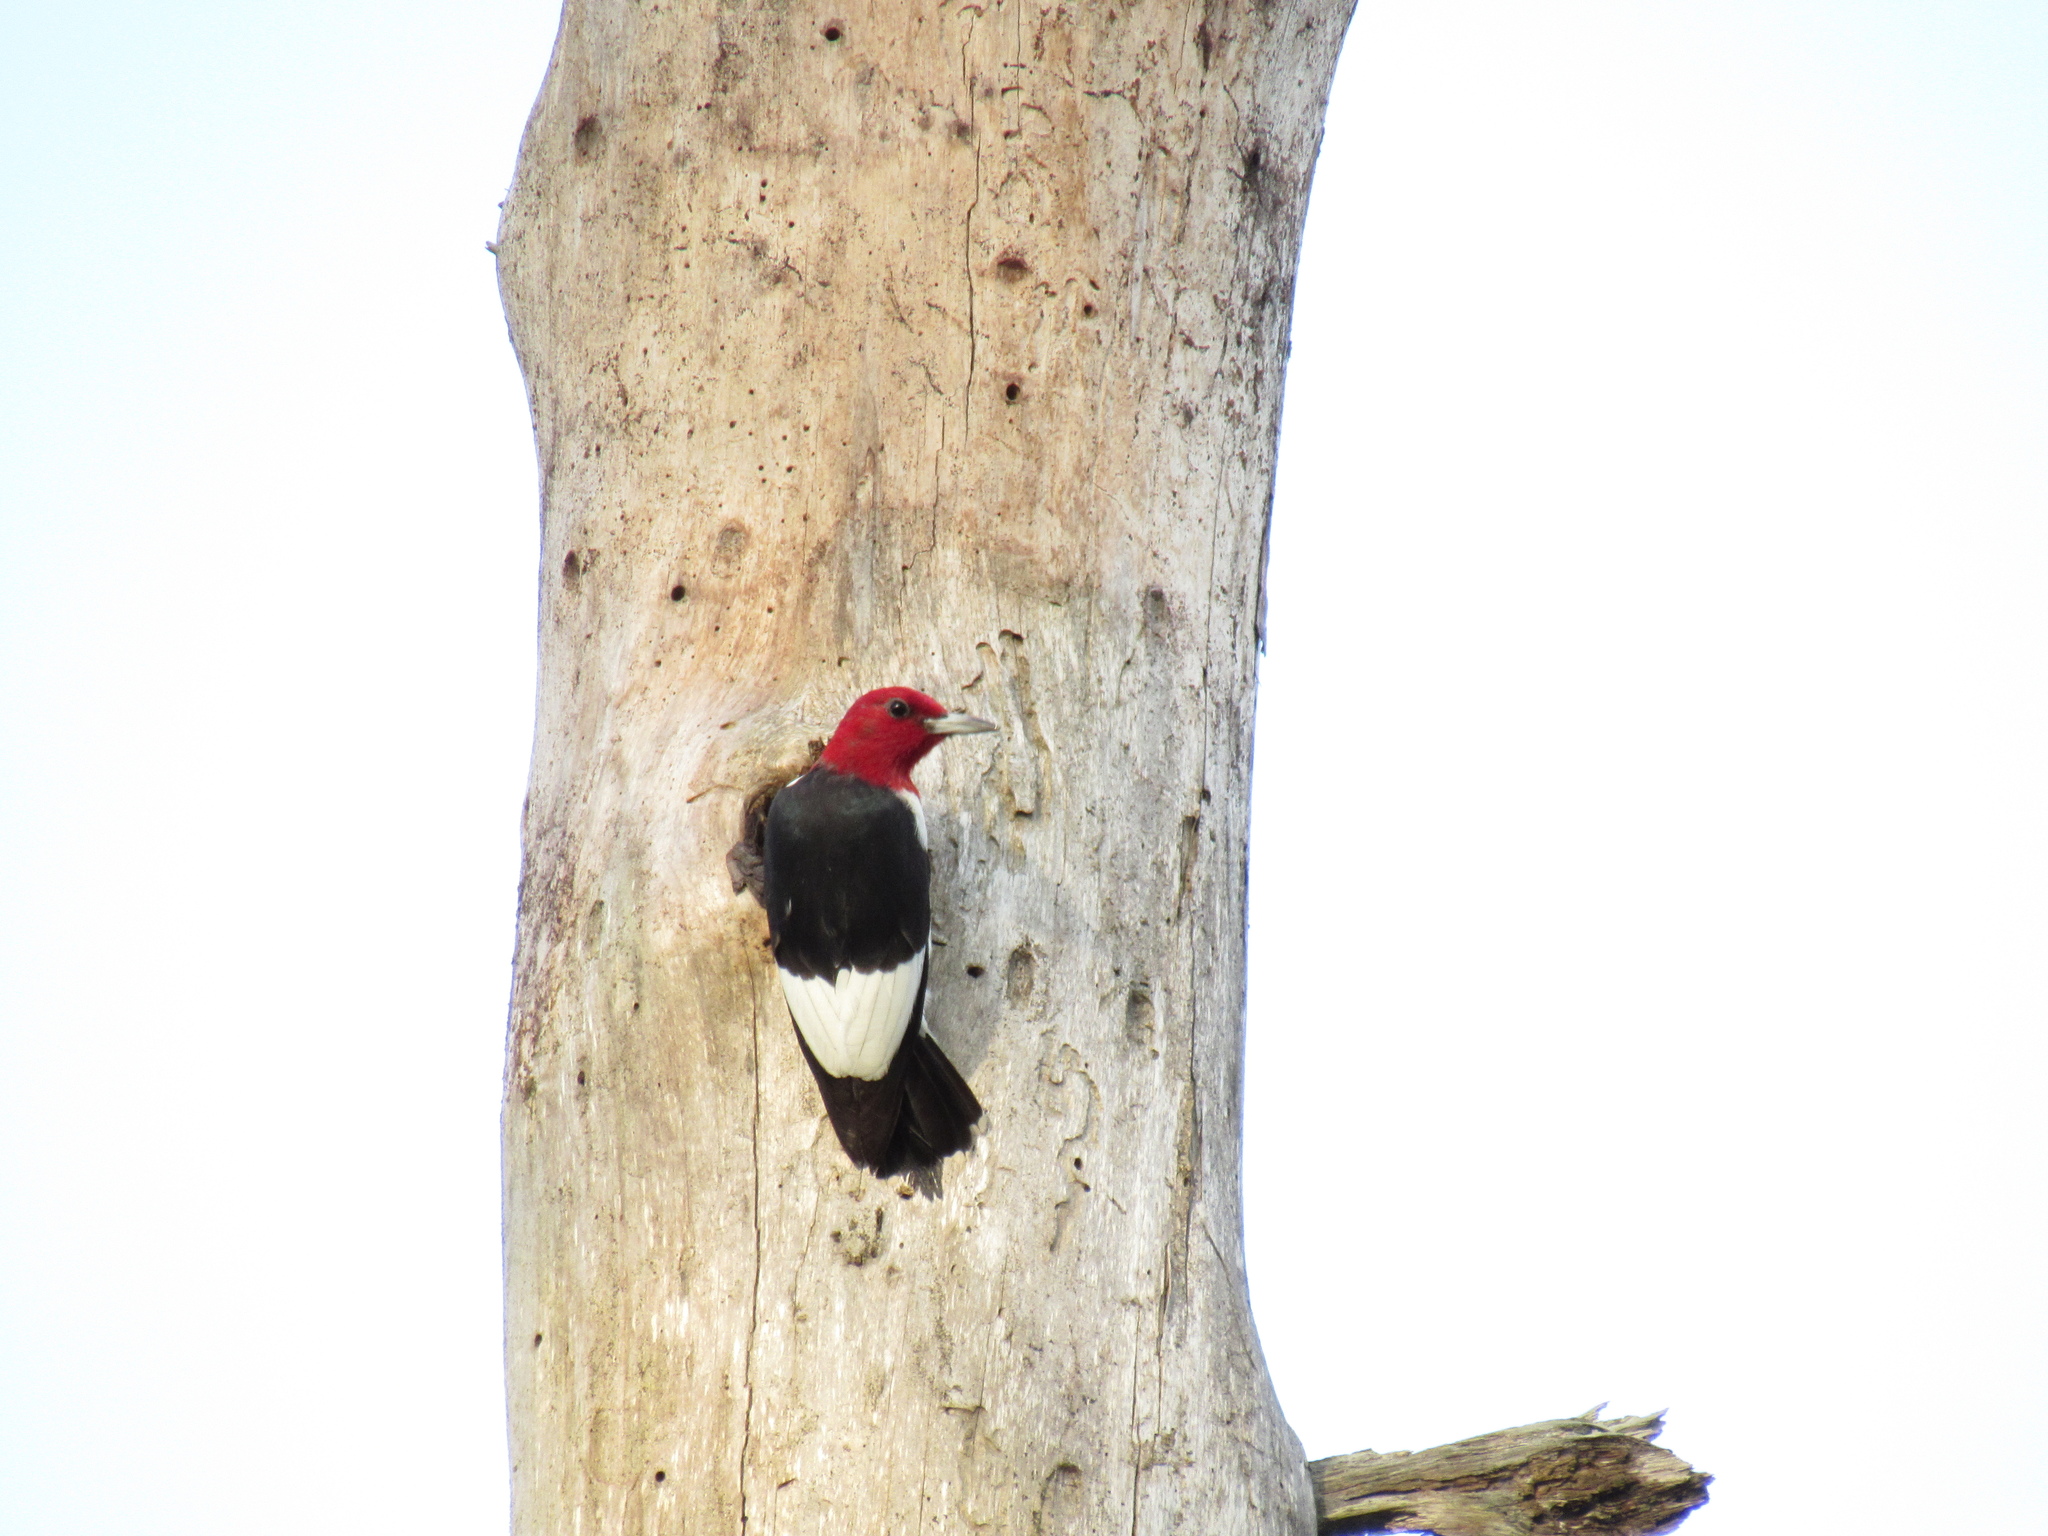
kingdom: Animalia
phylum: Chordata
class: Aves
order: Piciformes
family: Picidae
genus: Melanerpes
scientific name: Melanerpes erythrocephalus
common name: Red-headed woodpecker
